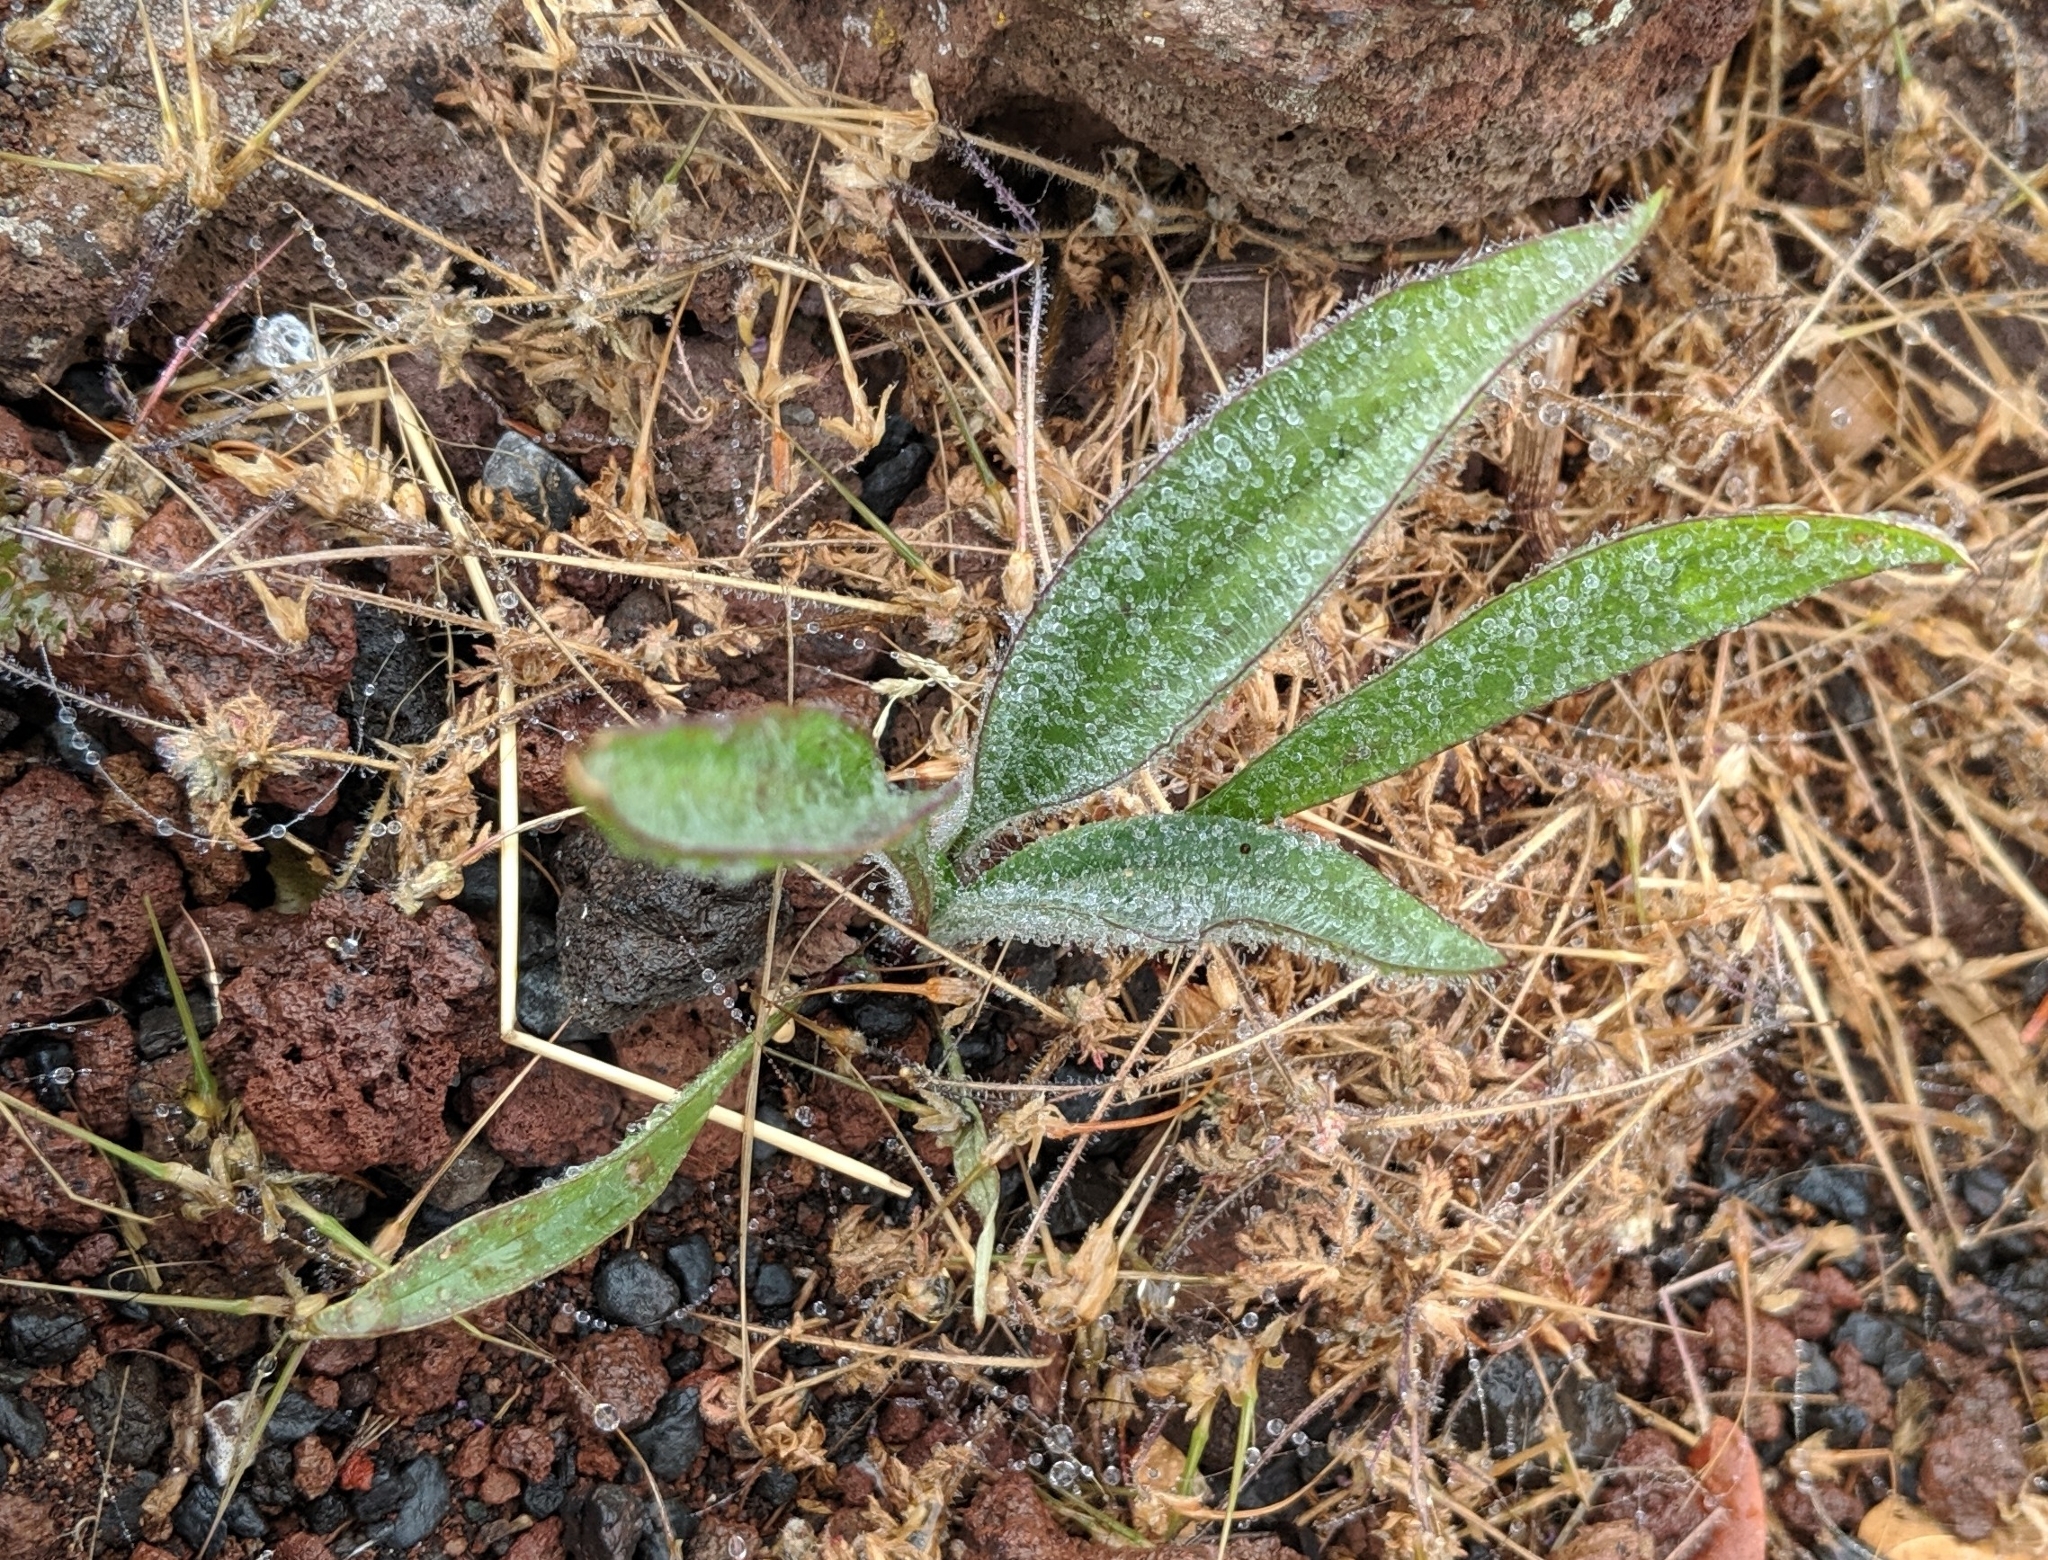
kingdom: Plantae
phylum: Tracheophyta
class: Magnoliopsida
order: Lamiales
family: Plantaginaceae
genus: Plantago
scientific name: Plantago lanceolata
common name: Ribwort plantain
